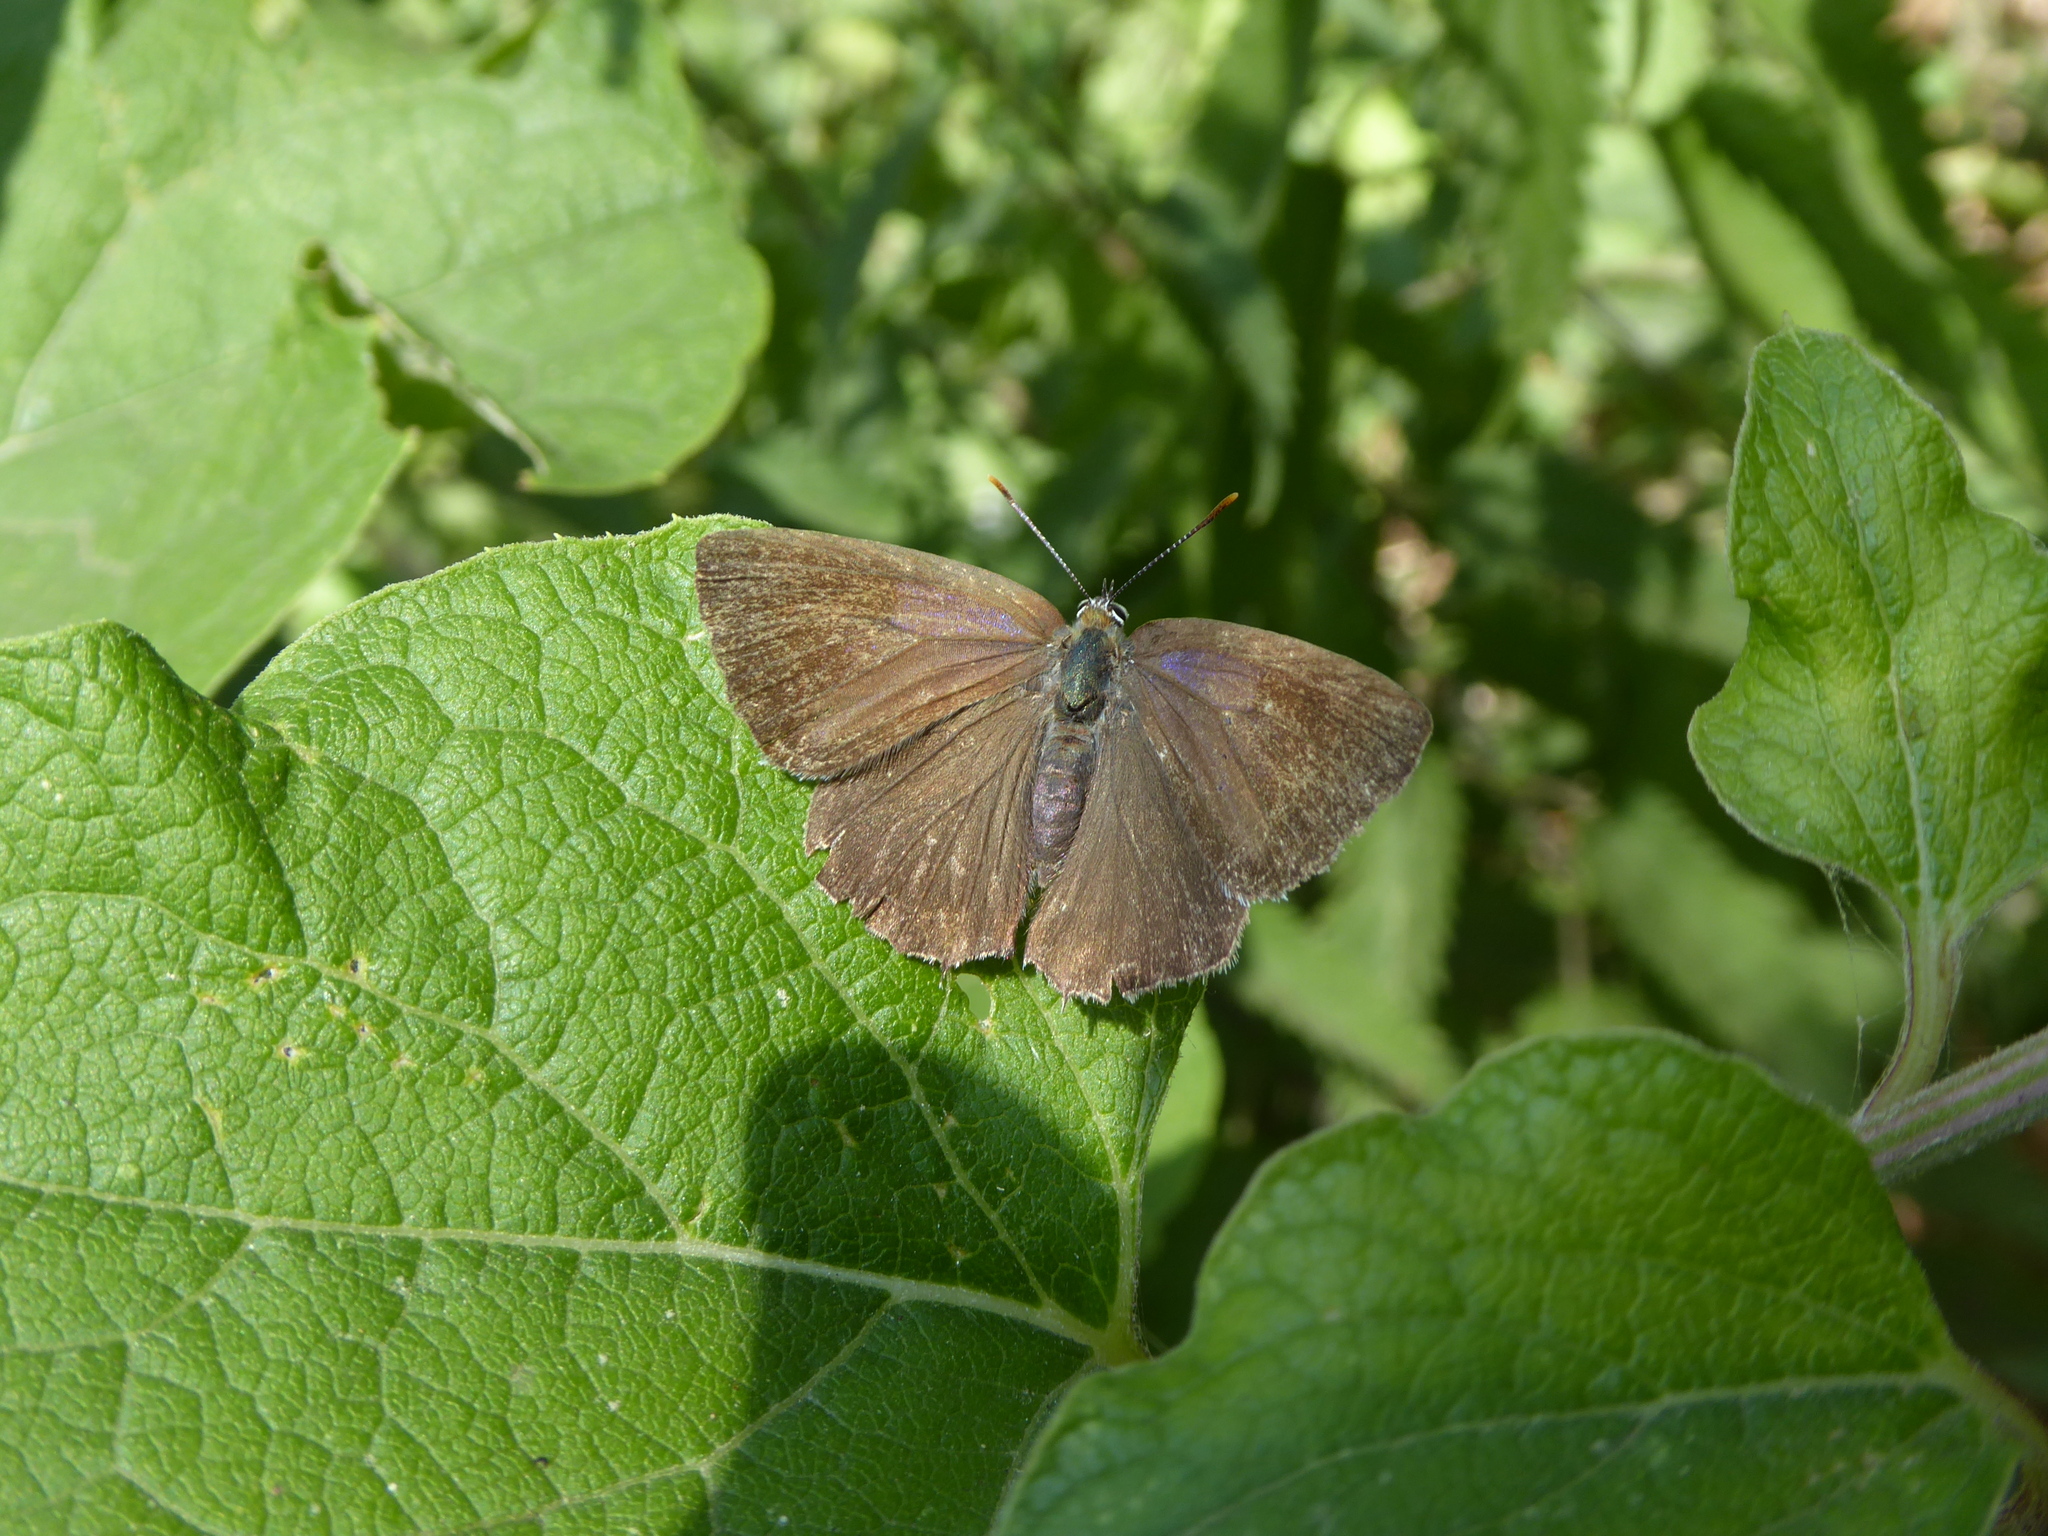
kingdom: Animalia
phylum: Arthropoda
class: Insecta
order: Lepidoptera
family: Lycaenidae
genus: Quercusia
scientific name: Quercusia quercus
